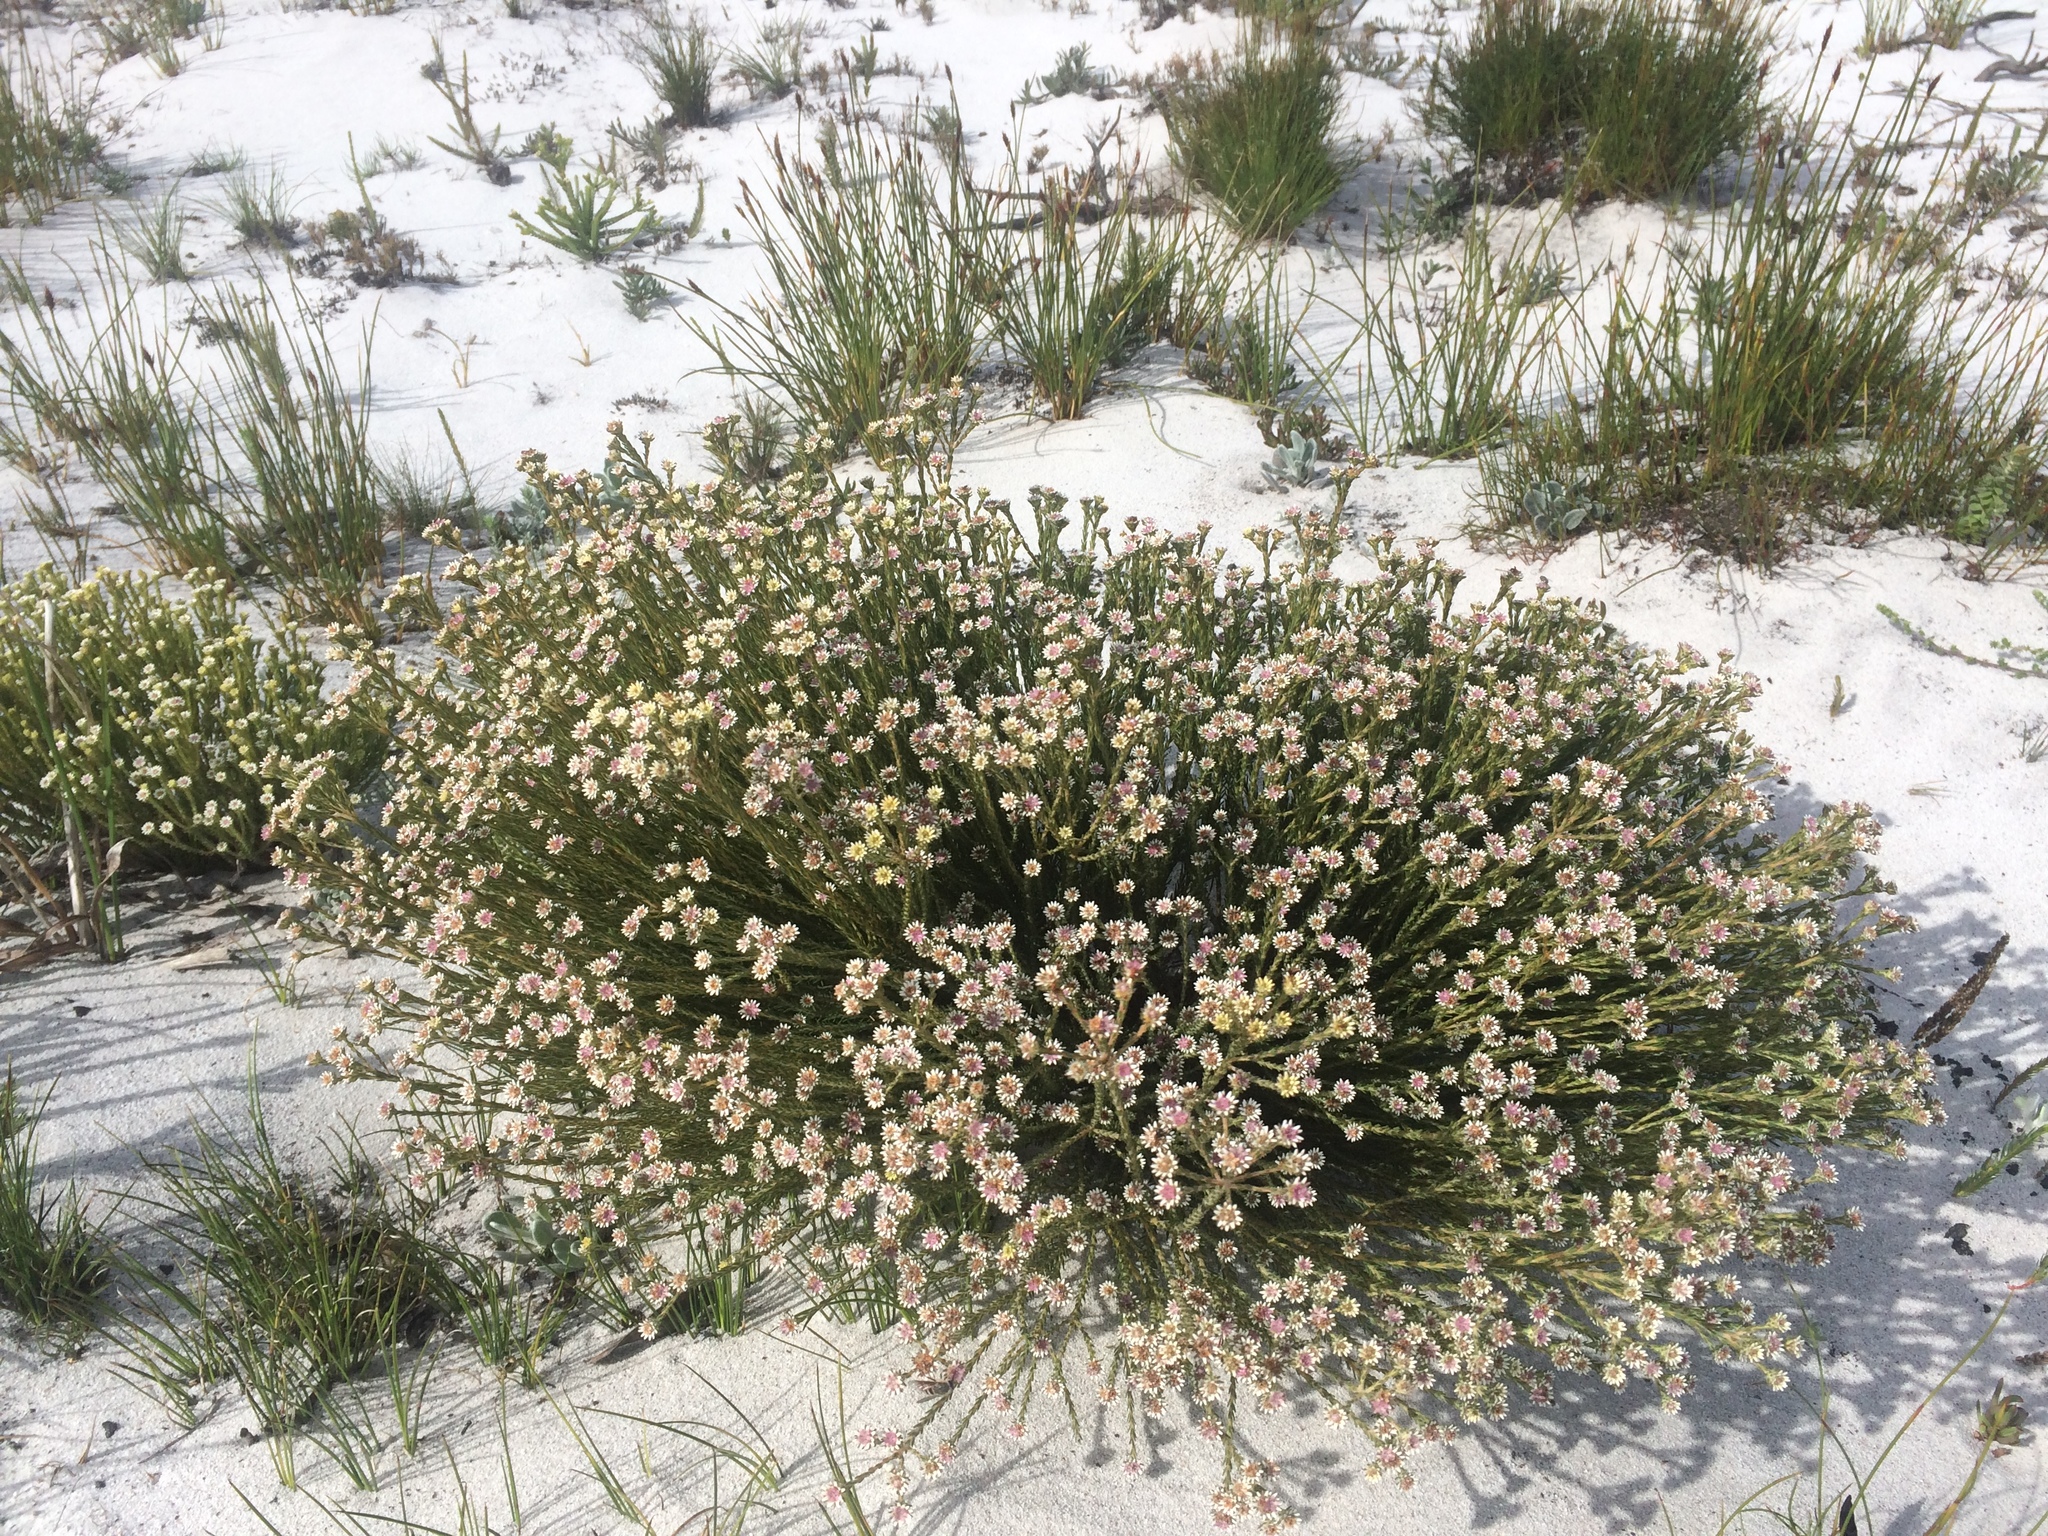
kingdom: Plantae
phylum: Tracheophyta
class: Magnoliopsida
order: Bruniales
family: Bruniaceae
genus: Staavia
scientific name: Staavia radiata
